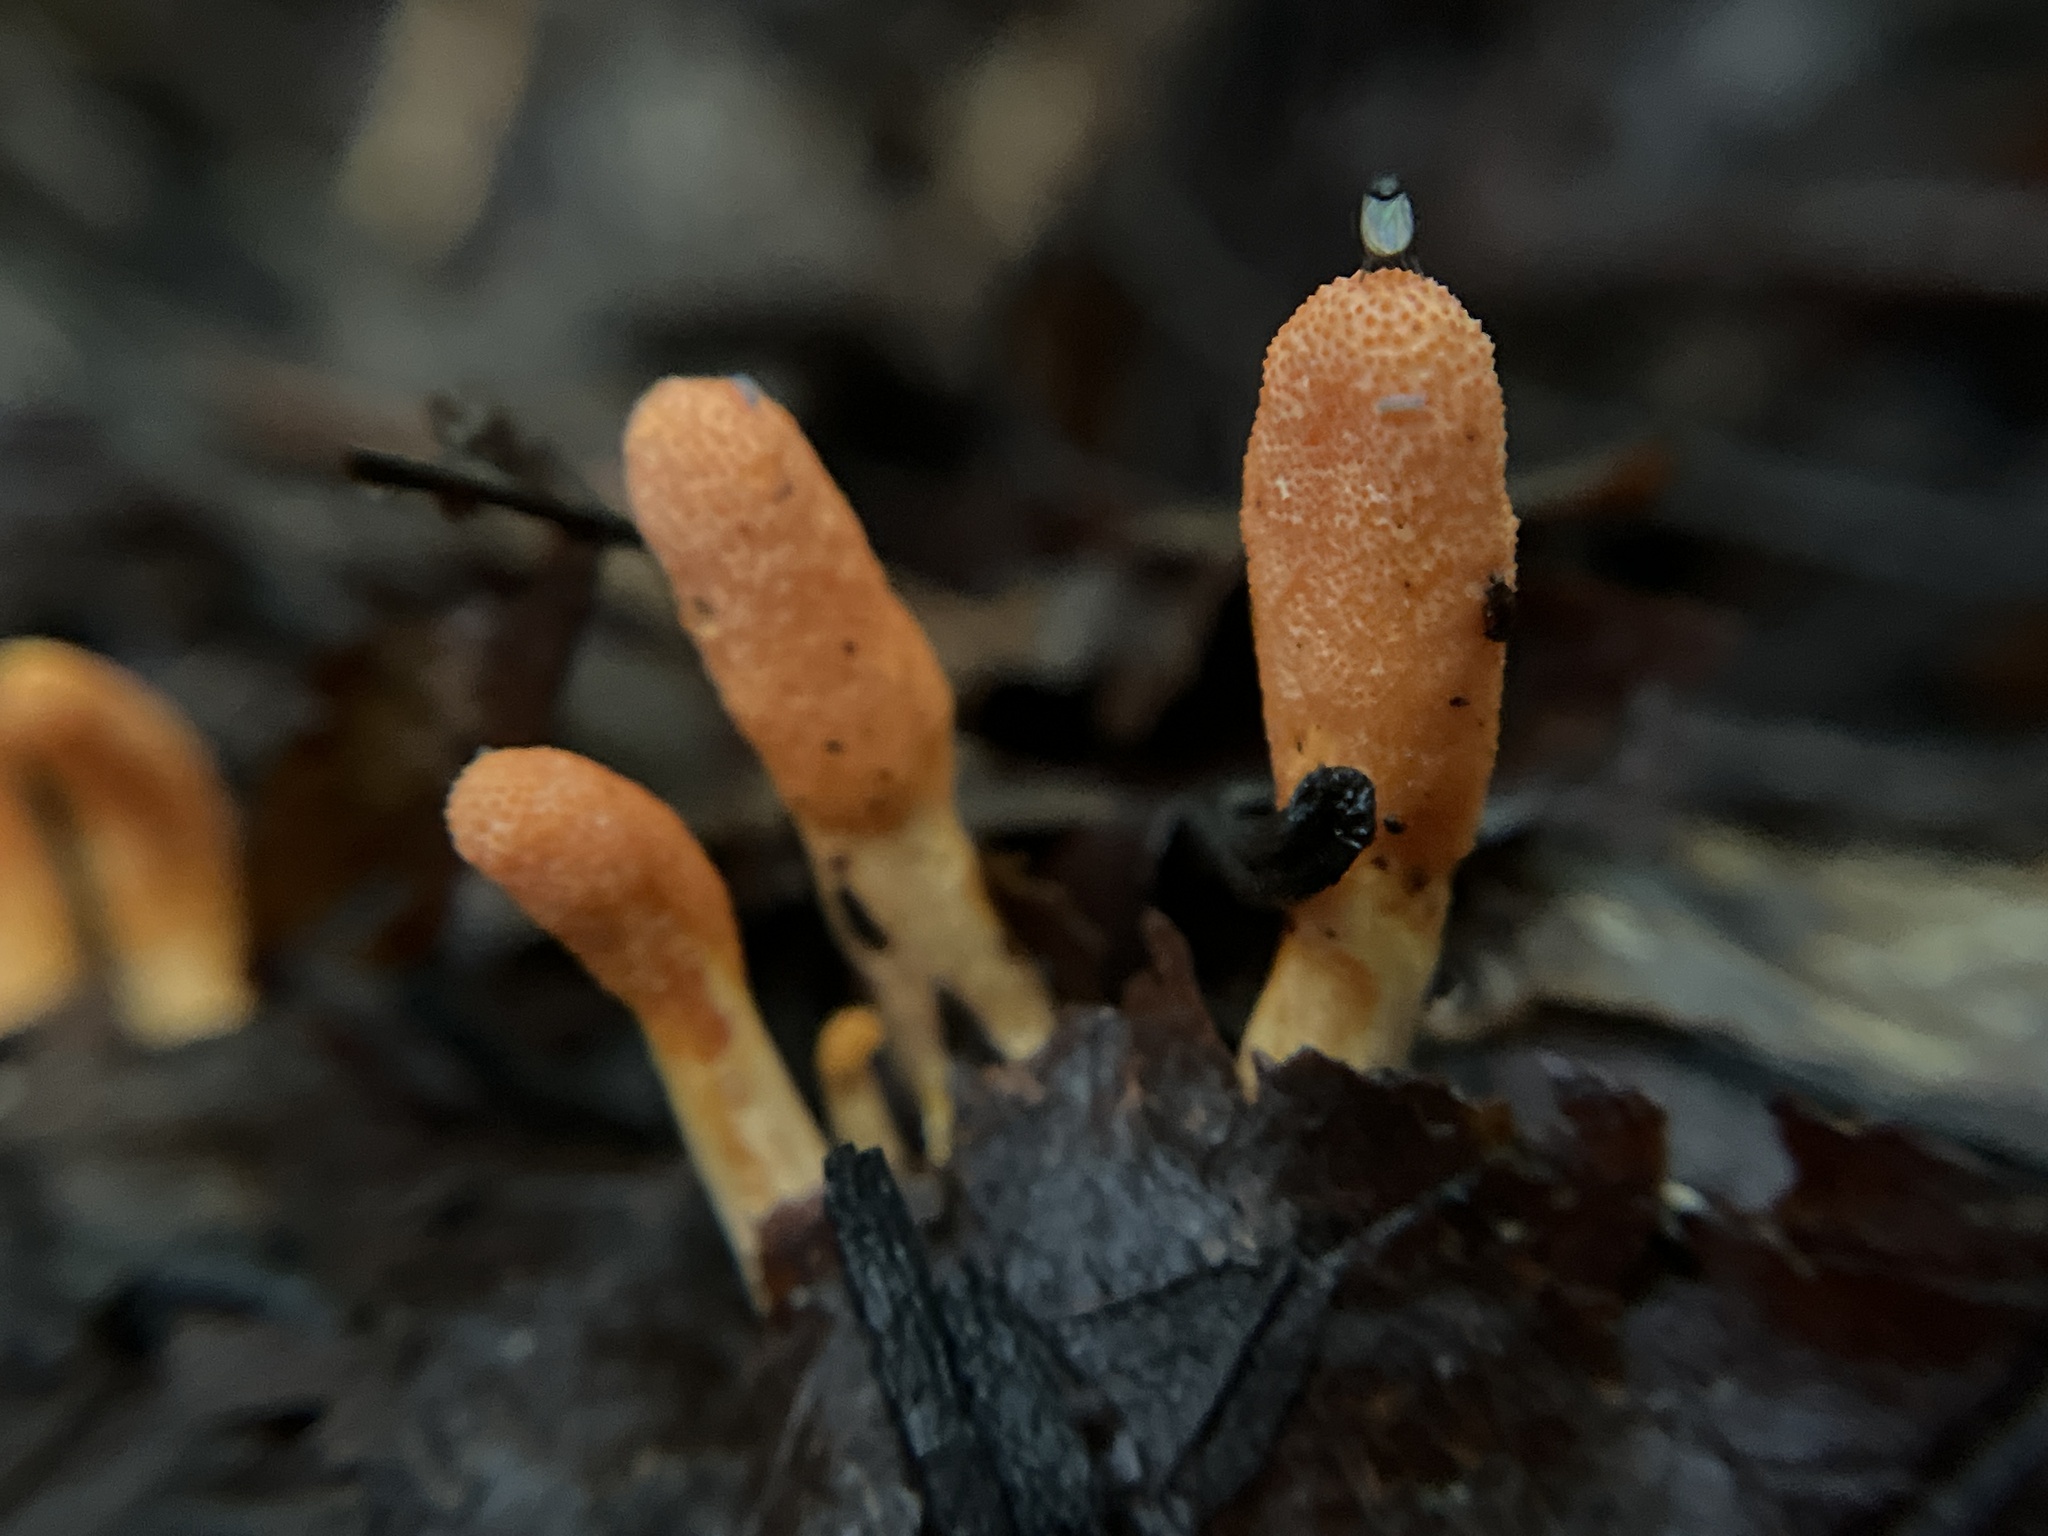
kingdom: Fungi
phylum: Ascomycota
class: Sordariomycetes
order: Hypocreales
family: Cordycipitaceae
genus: Cordyceps
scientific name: Cordyceps militaris
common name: Scarlet caterpillar fungus
